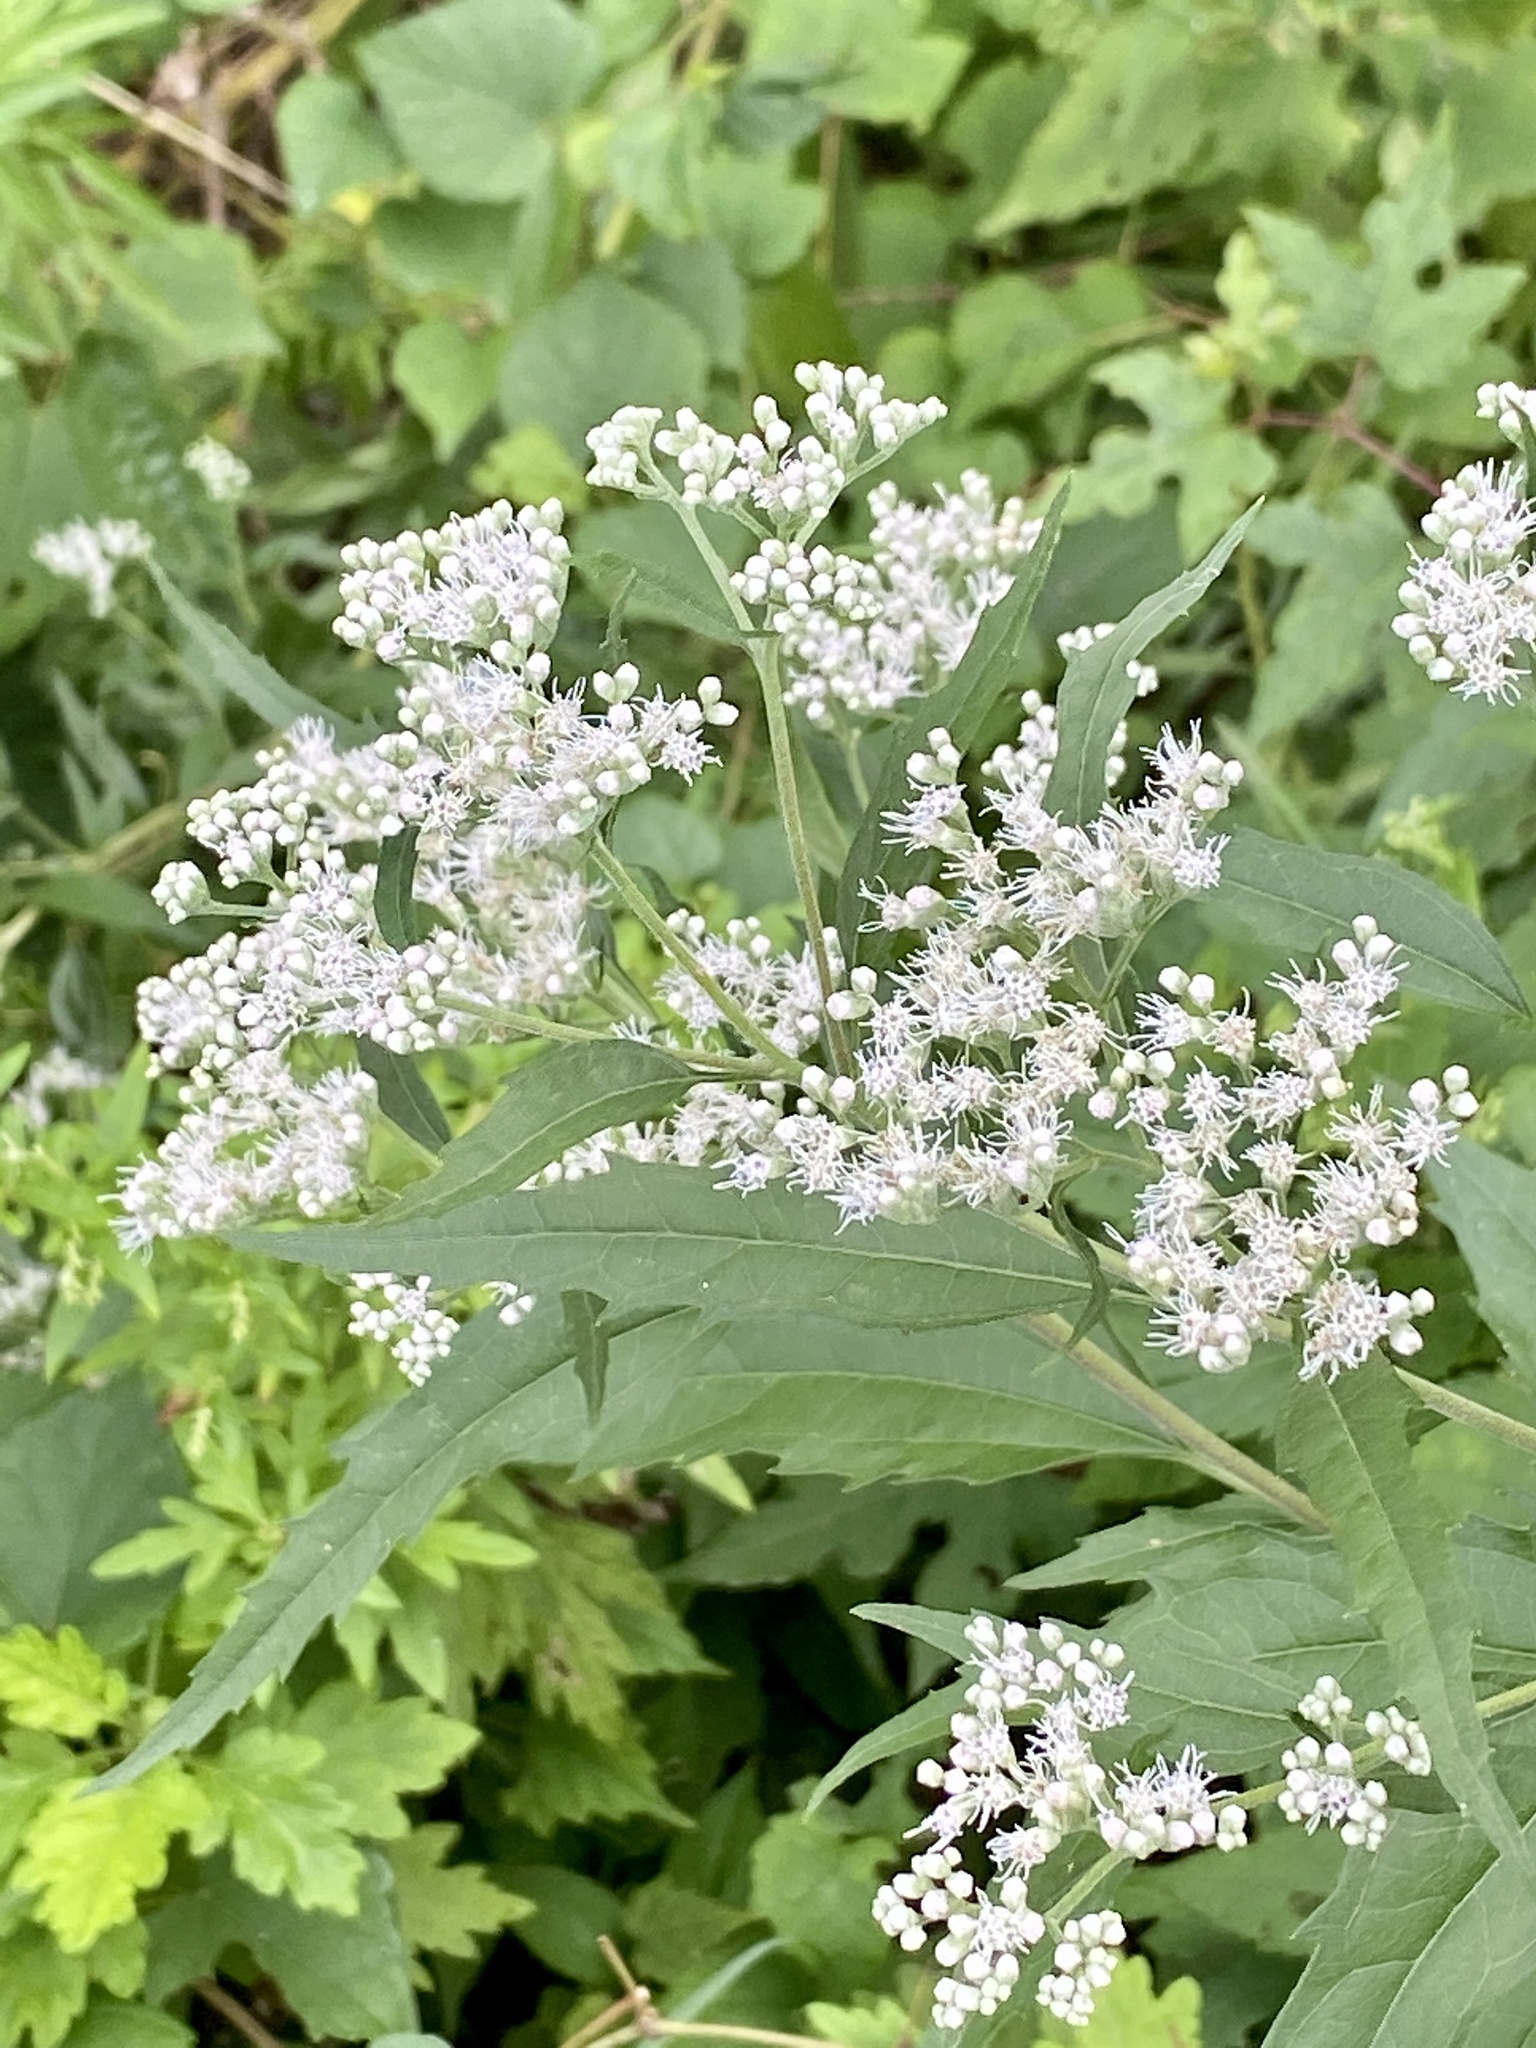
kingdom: Plantae
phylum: Tracheophyta
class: Magnoliopsida
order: Asterales
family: Asteraceae
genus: Eupatorium
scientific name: Eupatorium serotinum
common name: Late boneset
